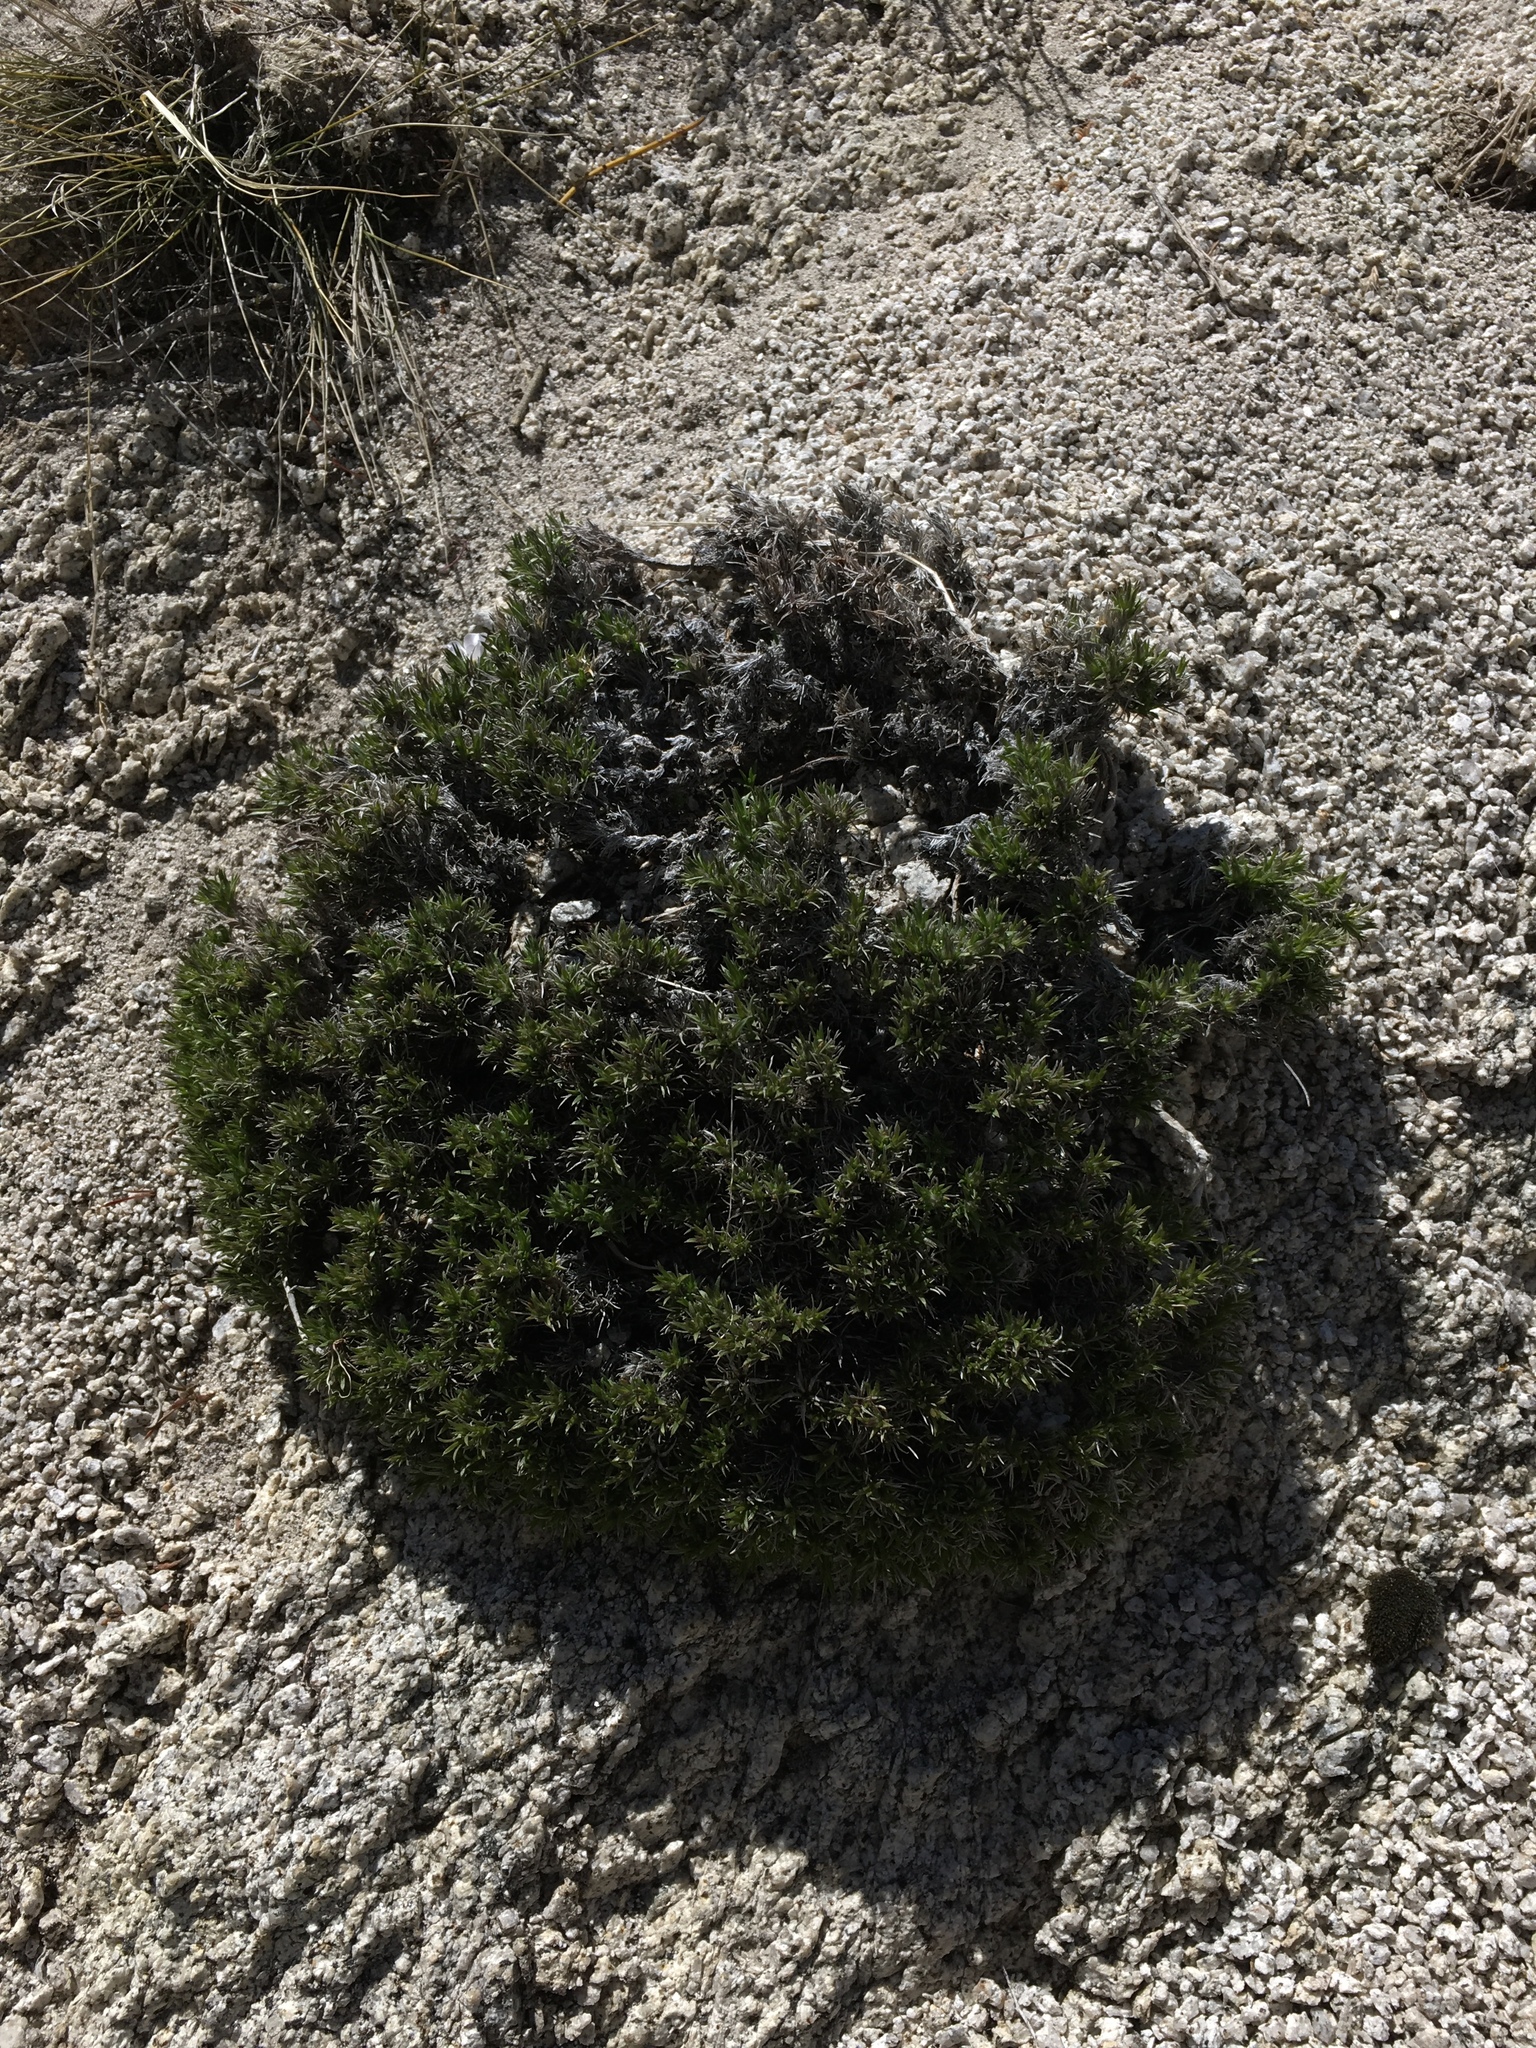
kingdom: Plantae
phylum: Tracheophyta
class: Magnoliopsida
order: Ericales
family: Polemoniaceae
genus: Phlox
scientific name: Phlox diffusa
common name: Mat phlox
